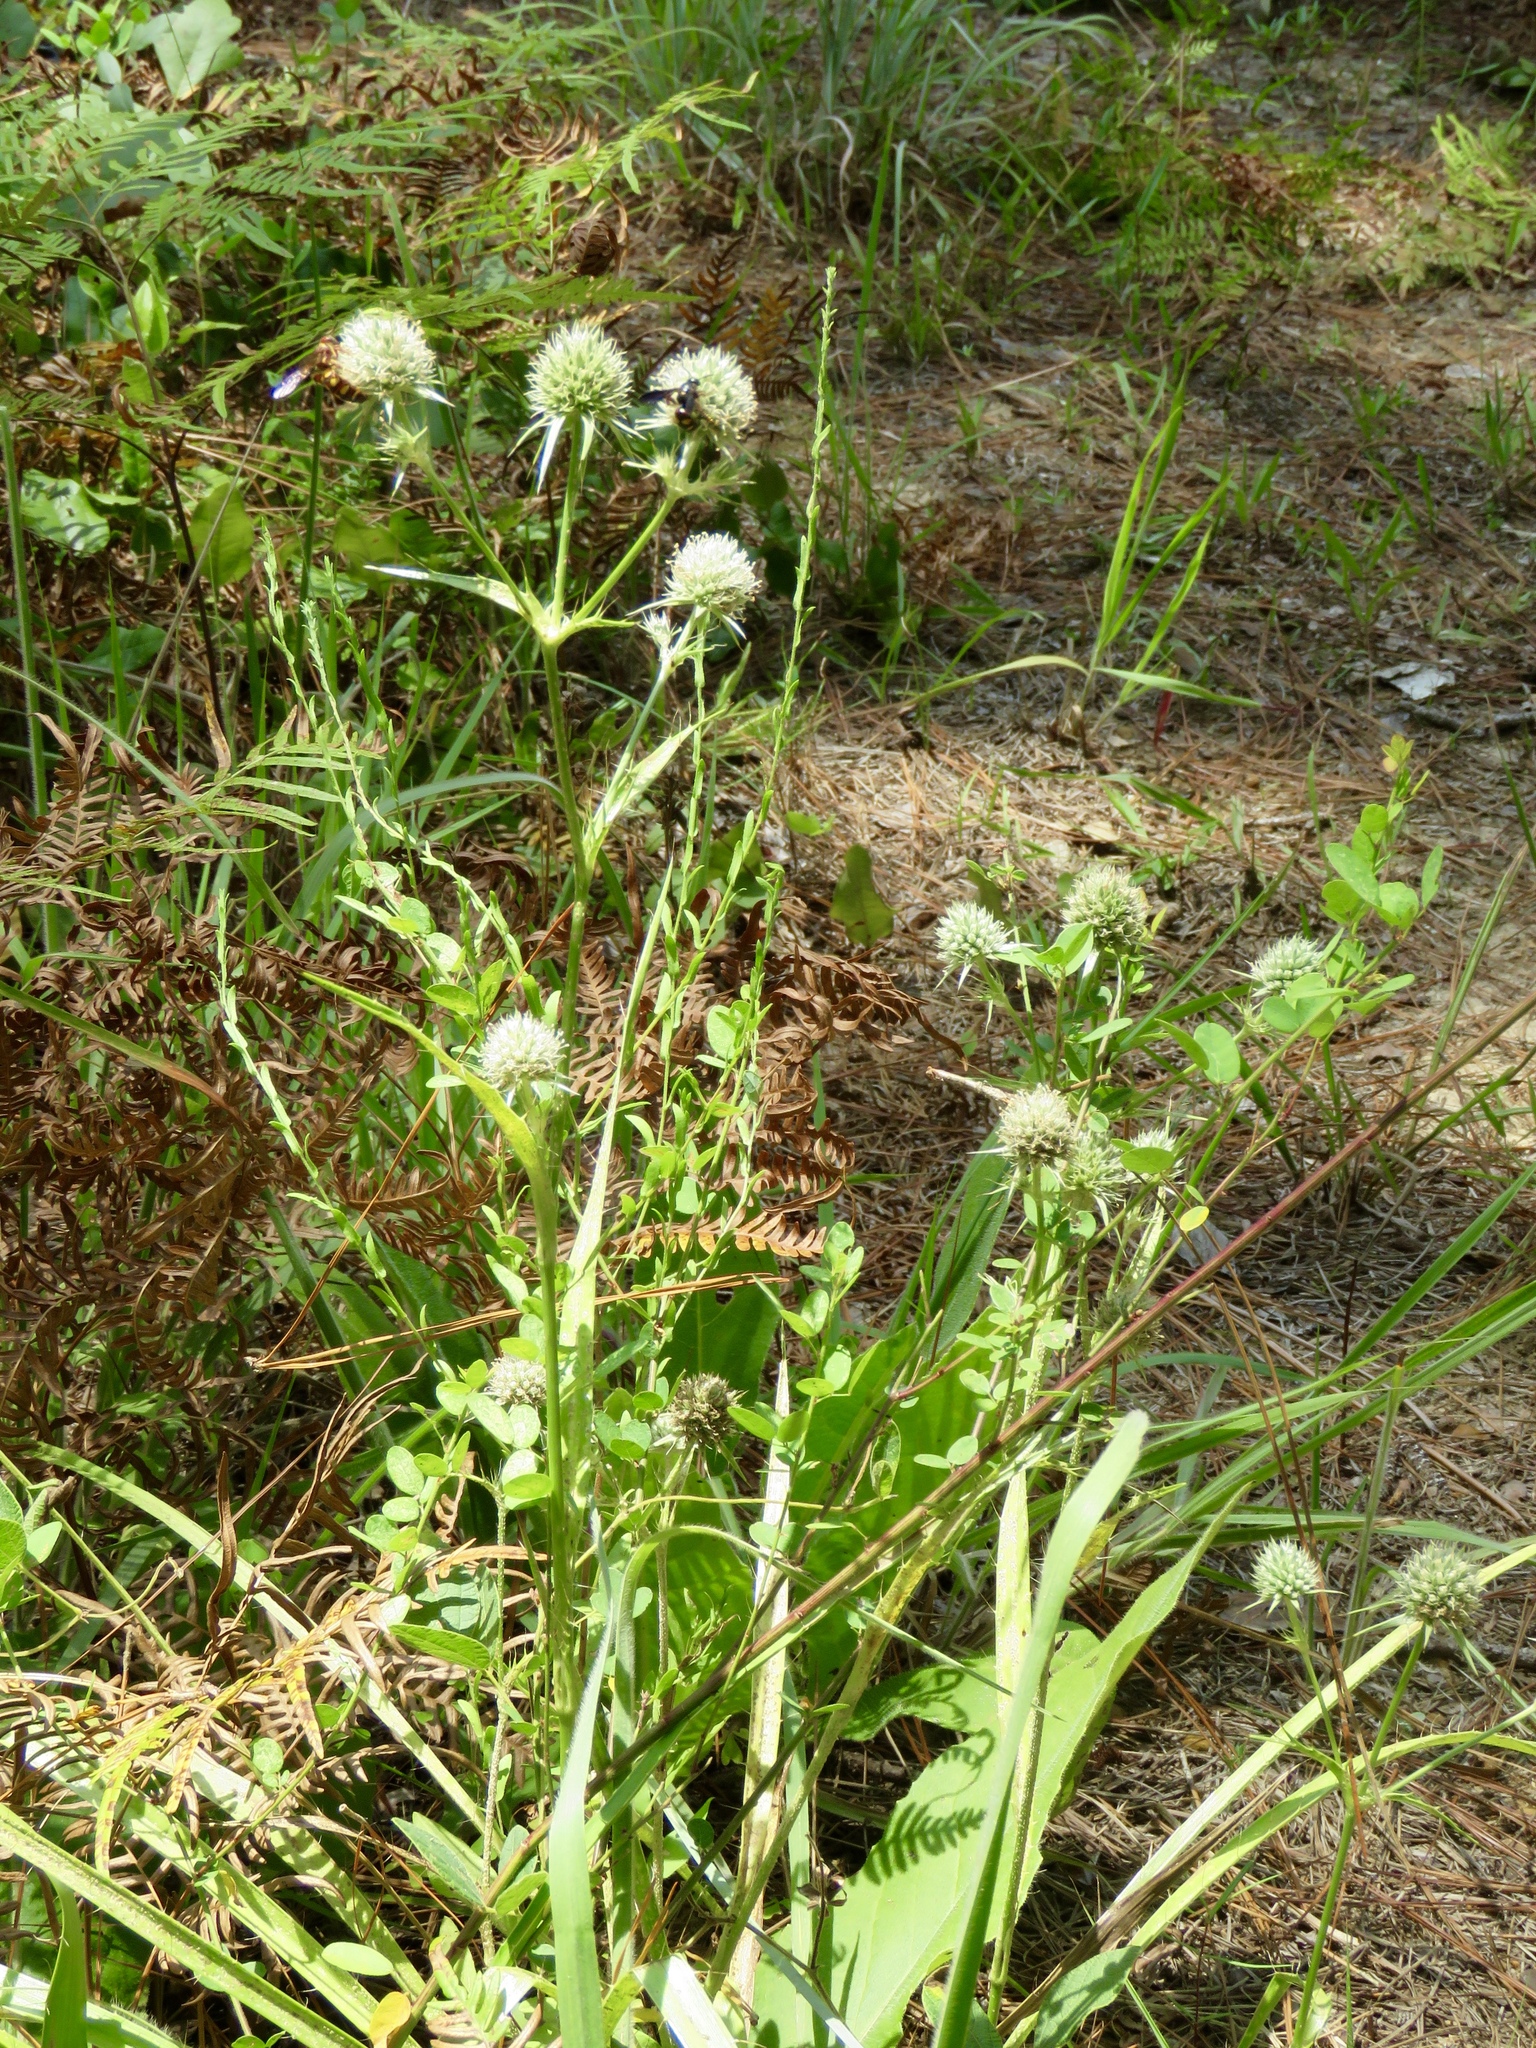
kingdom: Plantae
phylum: Tracheophyta
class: Magnoliopsida
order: Apiales
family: Apiaceae
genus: Eryngium
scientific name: Eryngium yuccifolium
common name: Button eryngo
